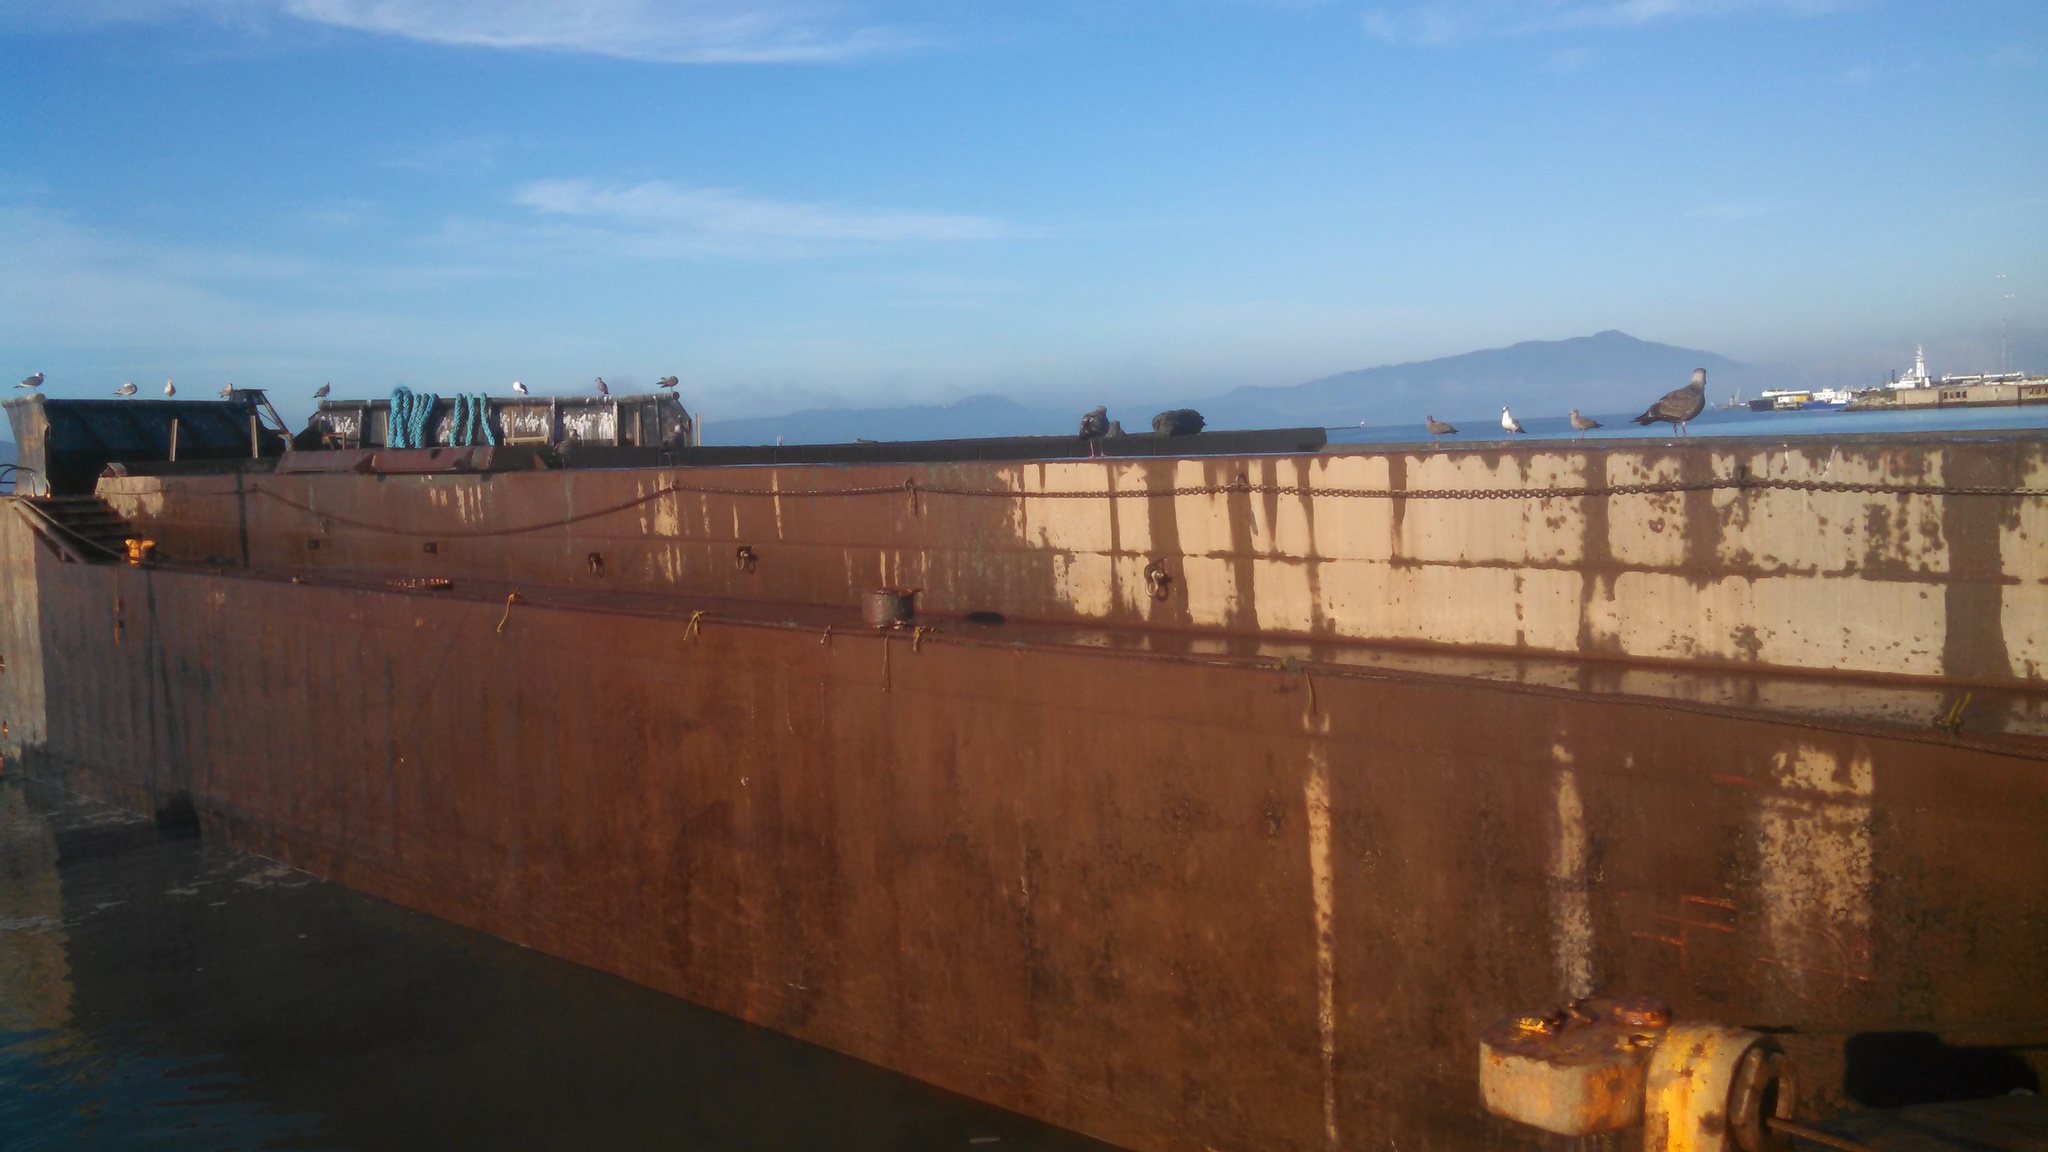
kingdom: Animalia
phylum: Chordata
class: Aves
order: Charadriiformes
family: Laridae
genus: Larus
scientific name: Larus occidentalis
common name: Western gull
